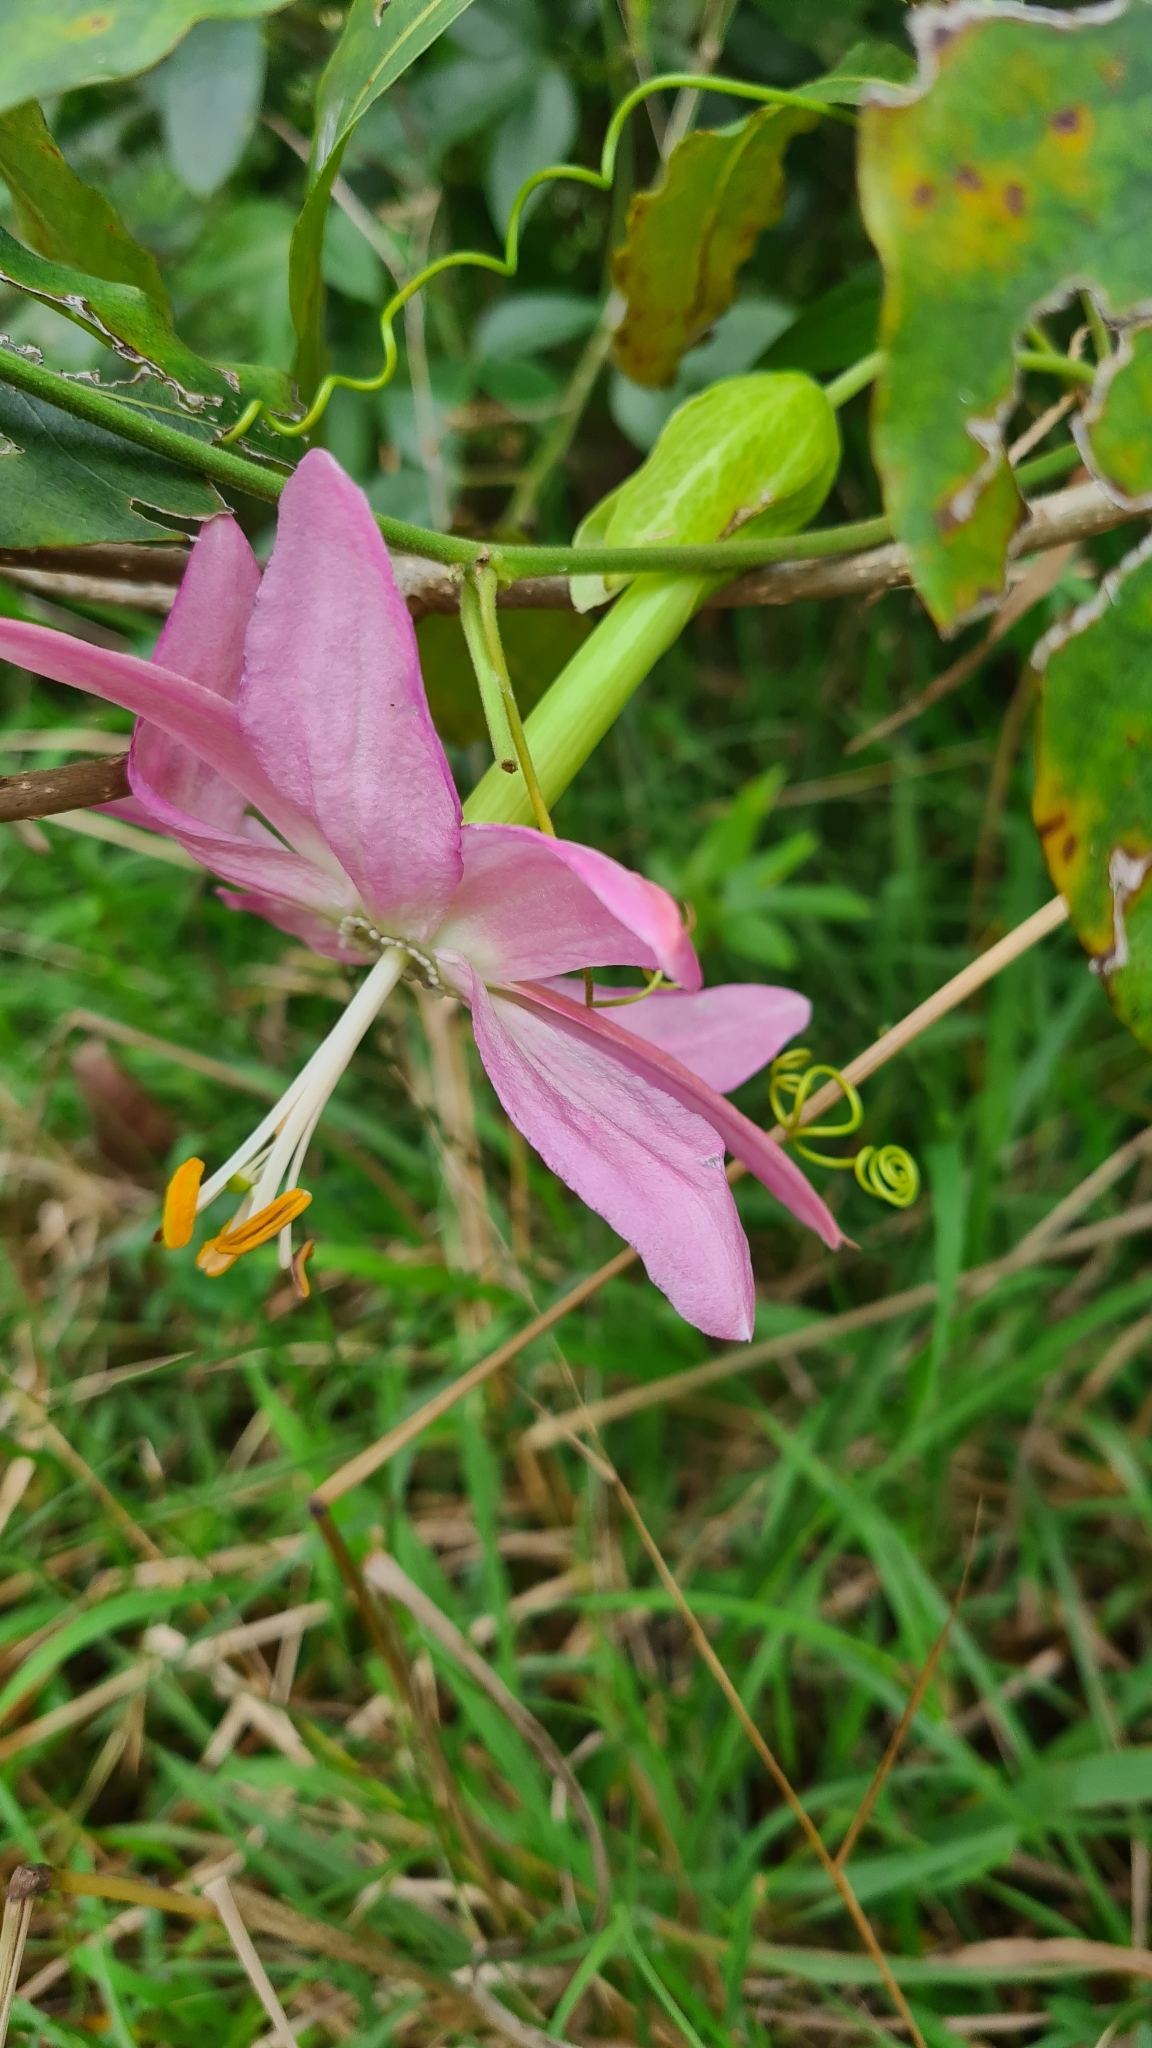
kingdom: Plantae
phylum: Tracheophyta
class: Magnoliopsida
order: Malpighiales
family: Passifloraceae
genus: Passiflora
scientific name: Passiflora tarminiana
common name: Banana poka
